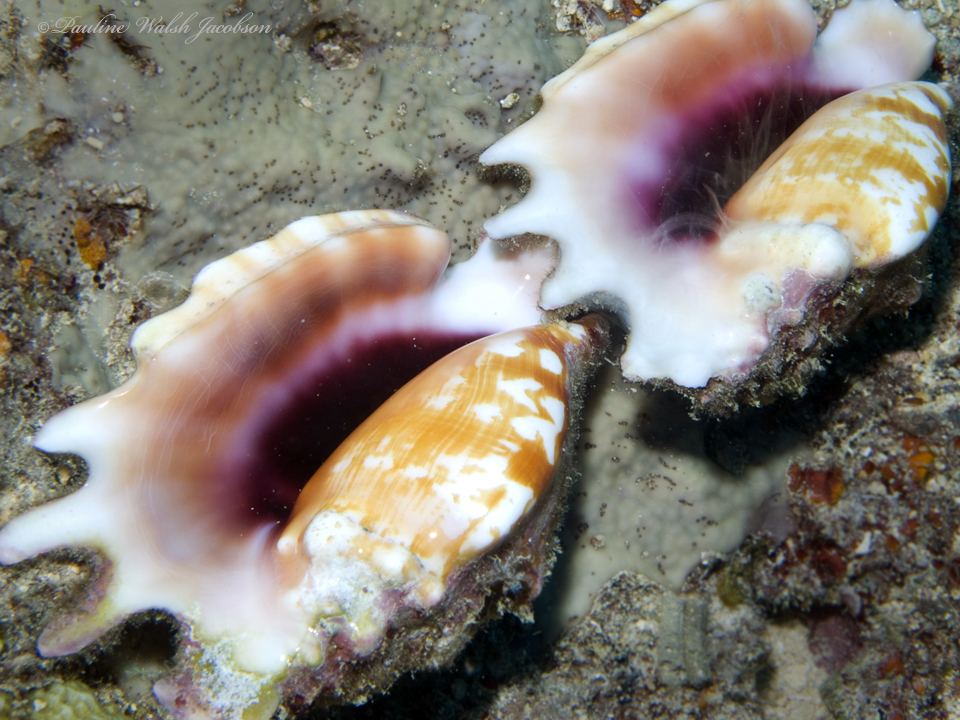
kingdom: Animalia
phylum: Mollusca
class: Gastropoda
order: Littorinimorpha
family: Strombidae
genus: Latissistrombus
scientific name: Latissistrombus sinuatus
